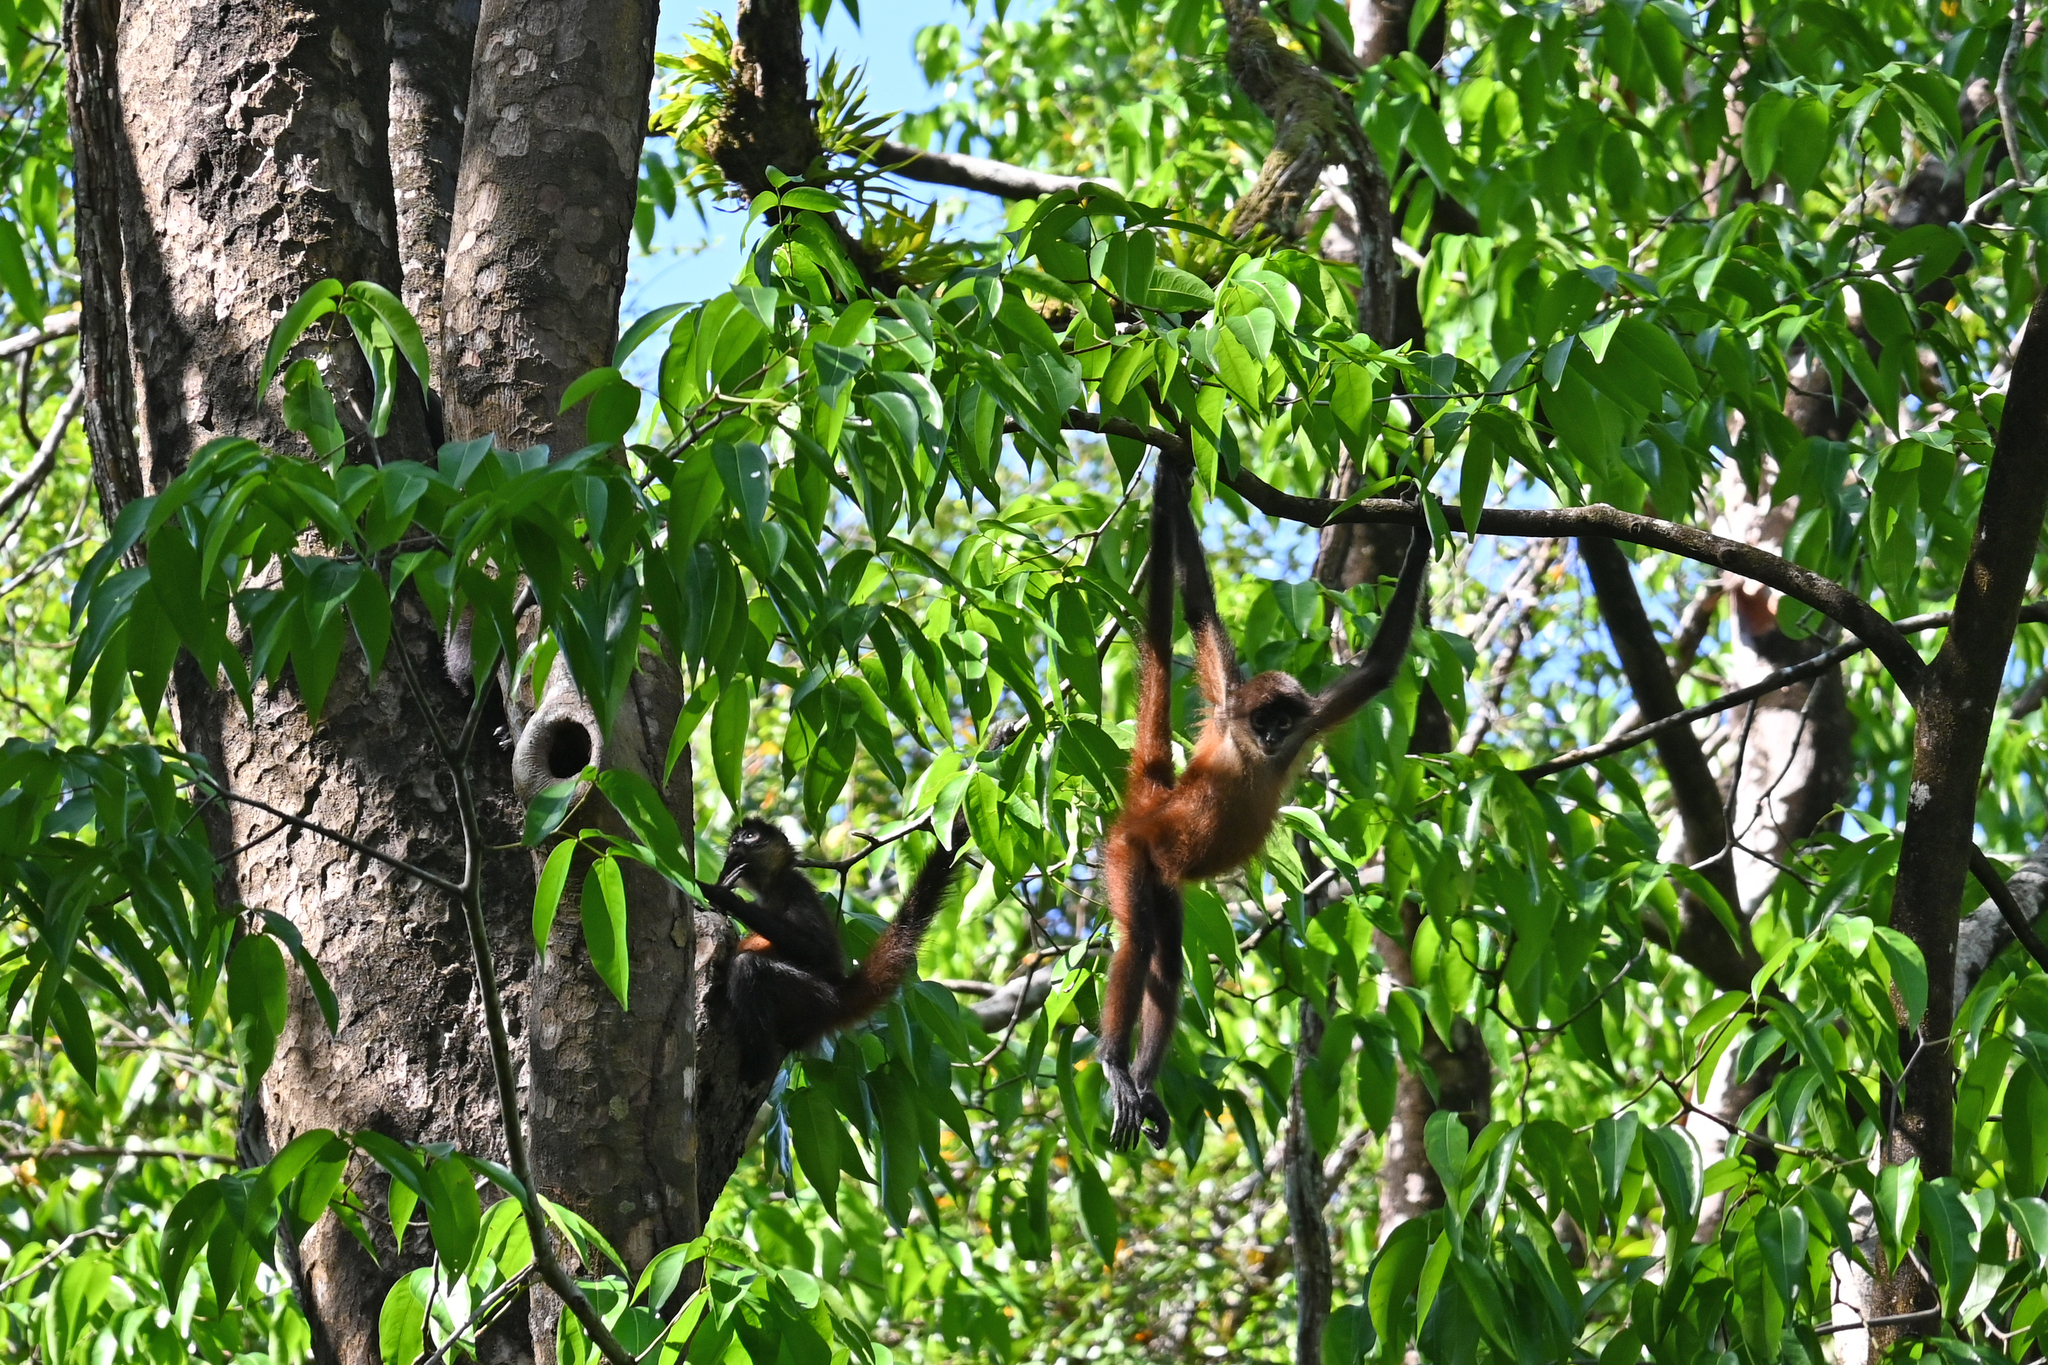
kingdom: Animalia
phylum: Chordata
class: Mammalia
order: Primates
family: Atelidae
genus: Ateles
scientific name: Ateles geoffroyi
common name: Black-handed spider monkey
